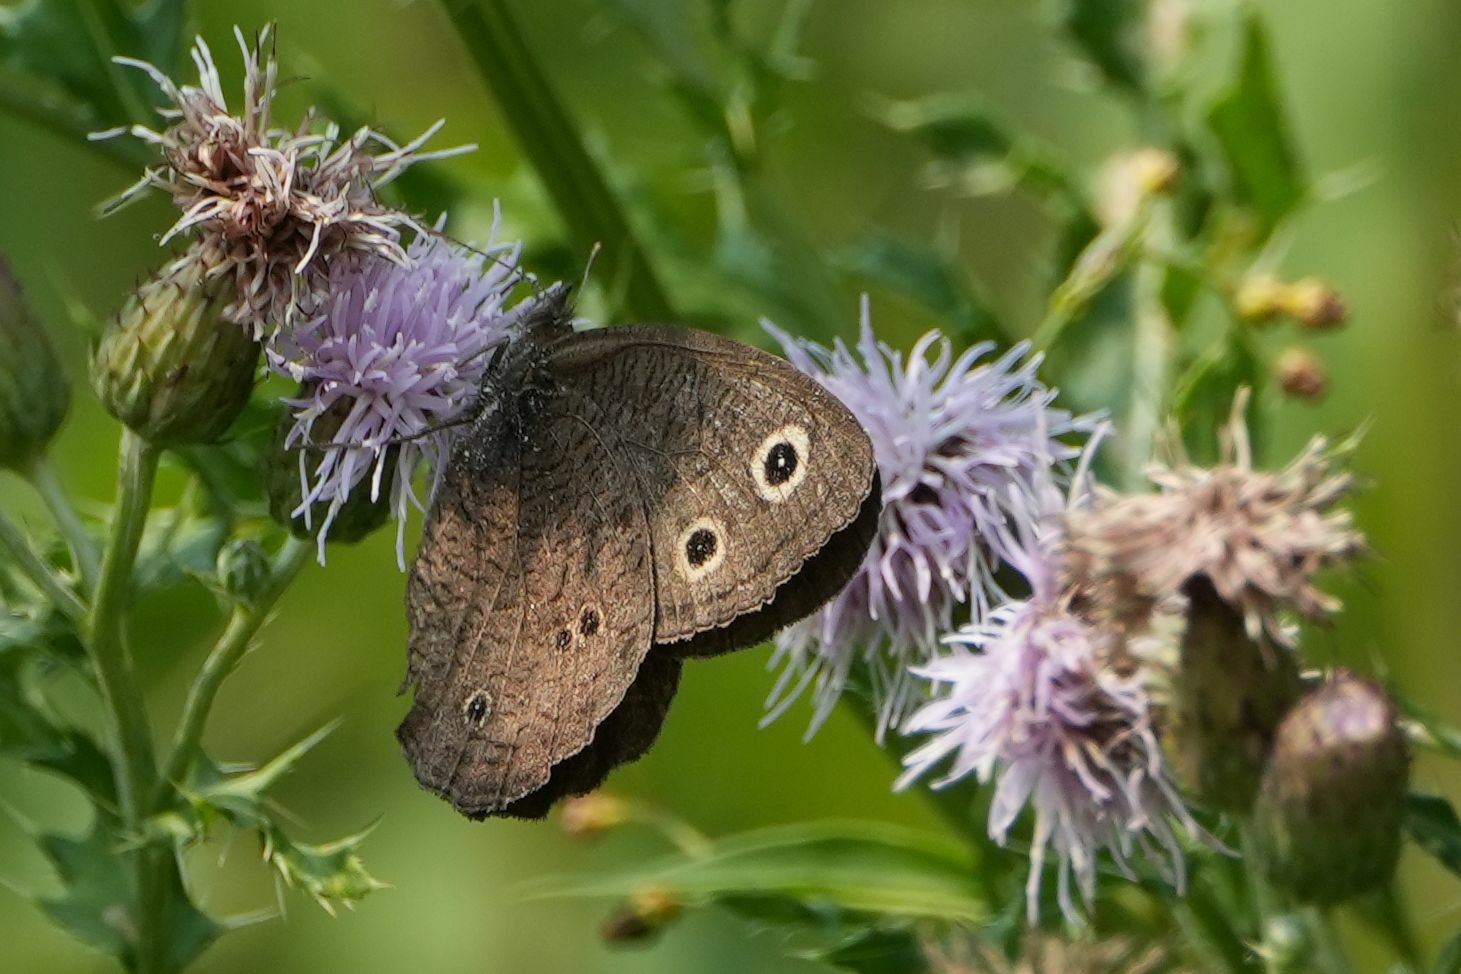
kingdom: Animalia
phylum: Arthropoda
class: Insecta
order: Lepidoptera
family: Nymphalidae
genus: Cercyonis
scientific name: Cercyonis pegala
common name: Common wood-nymph
